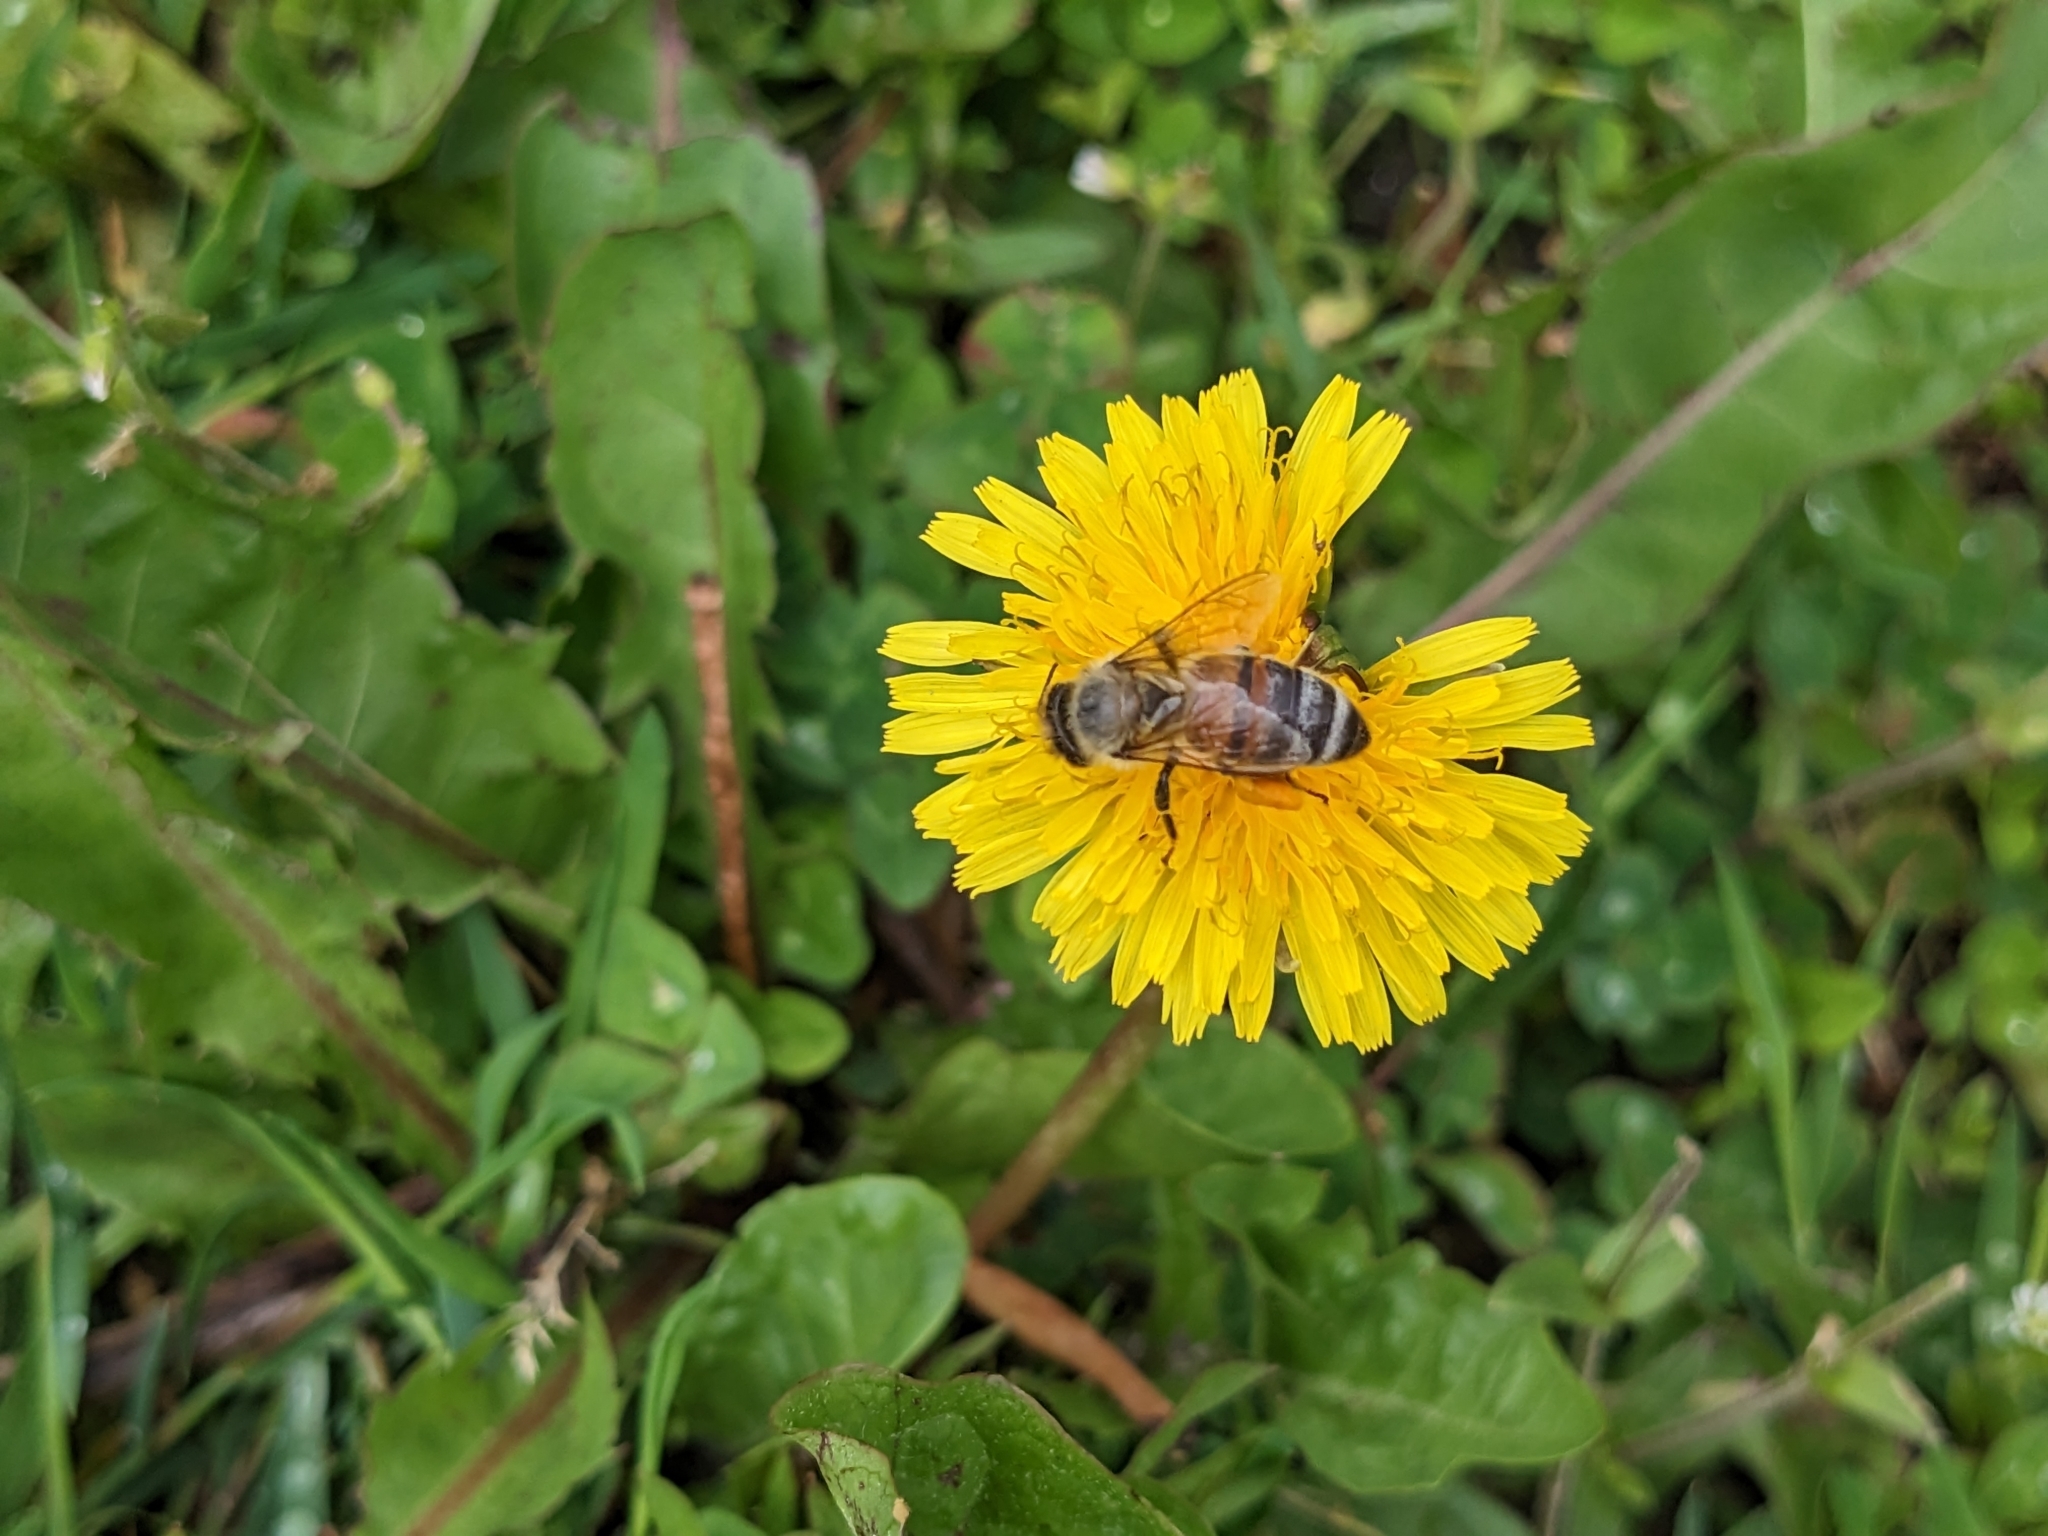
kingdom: Animalia
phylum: Arthropoda
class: Insecta
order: Hymenoptera
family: Apidae
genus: Apis
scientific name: Apis mellifera
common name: Honey bee
